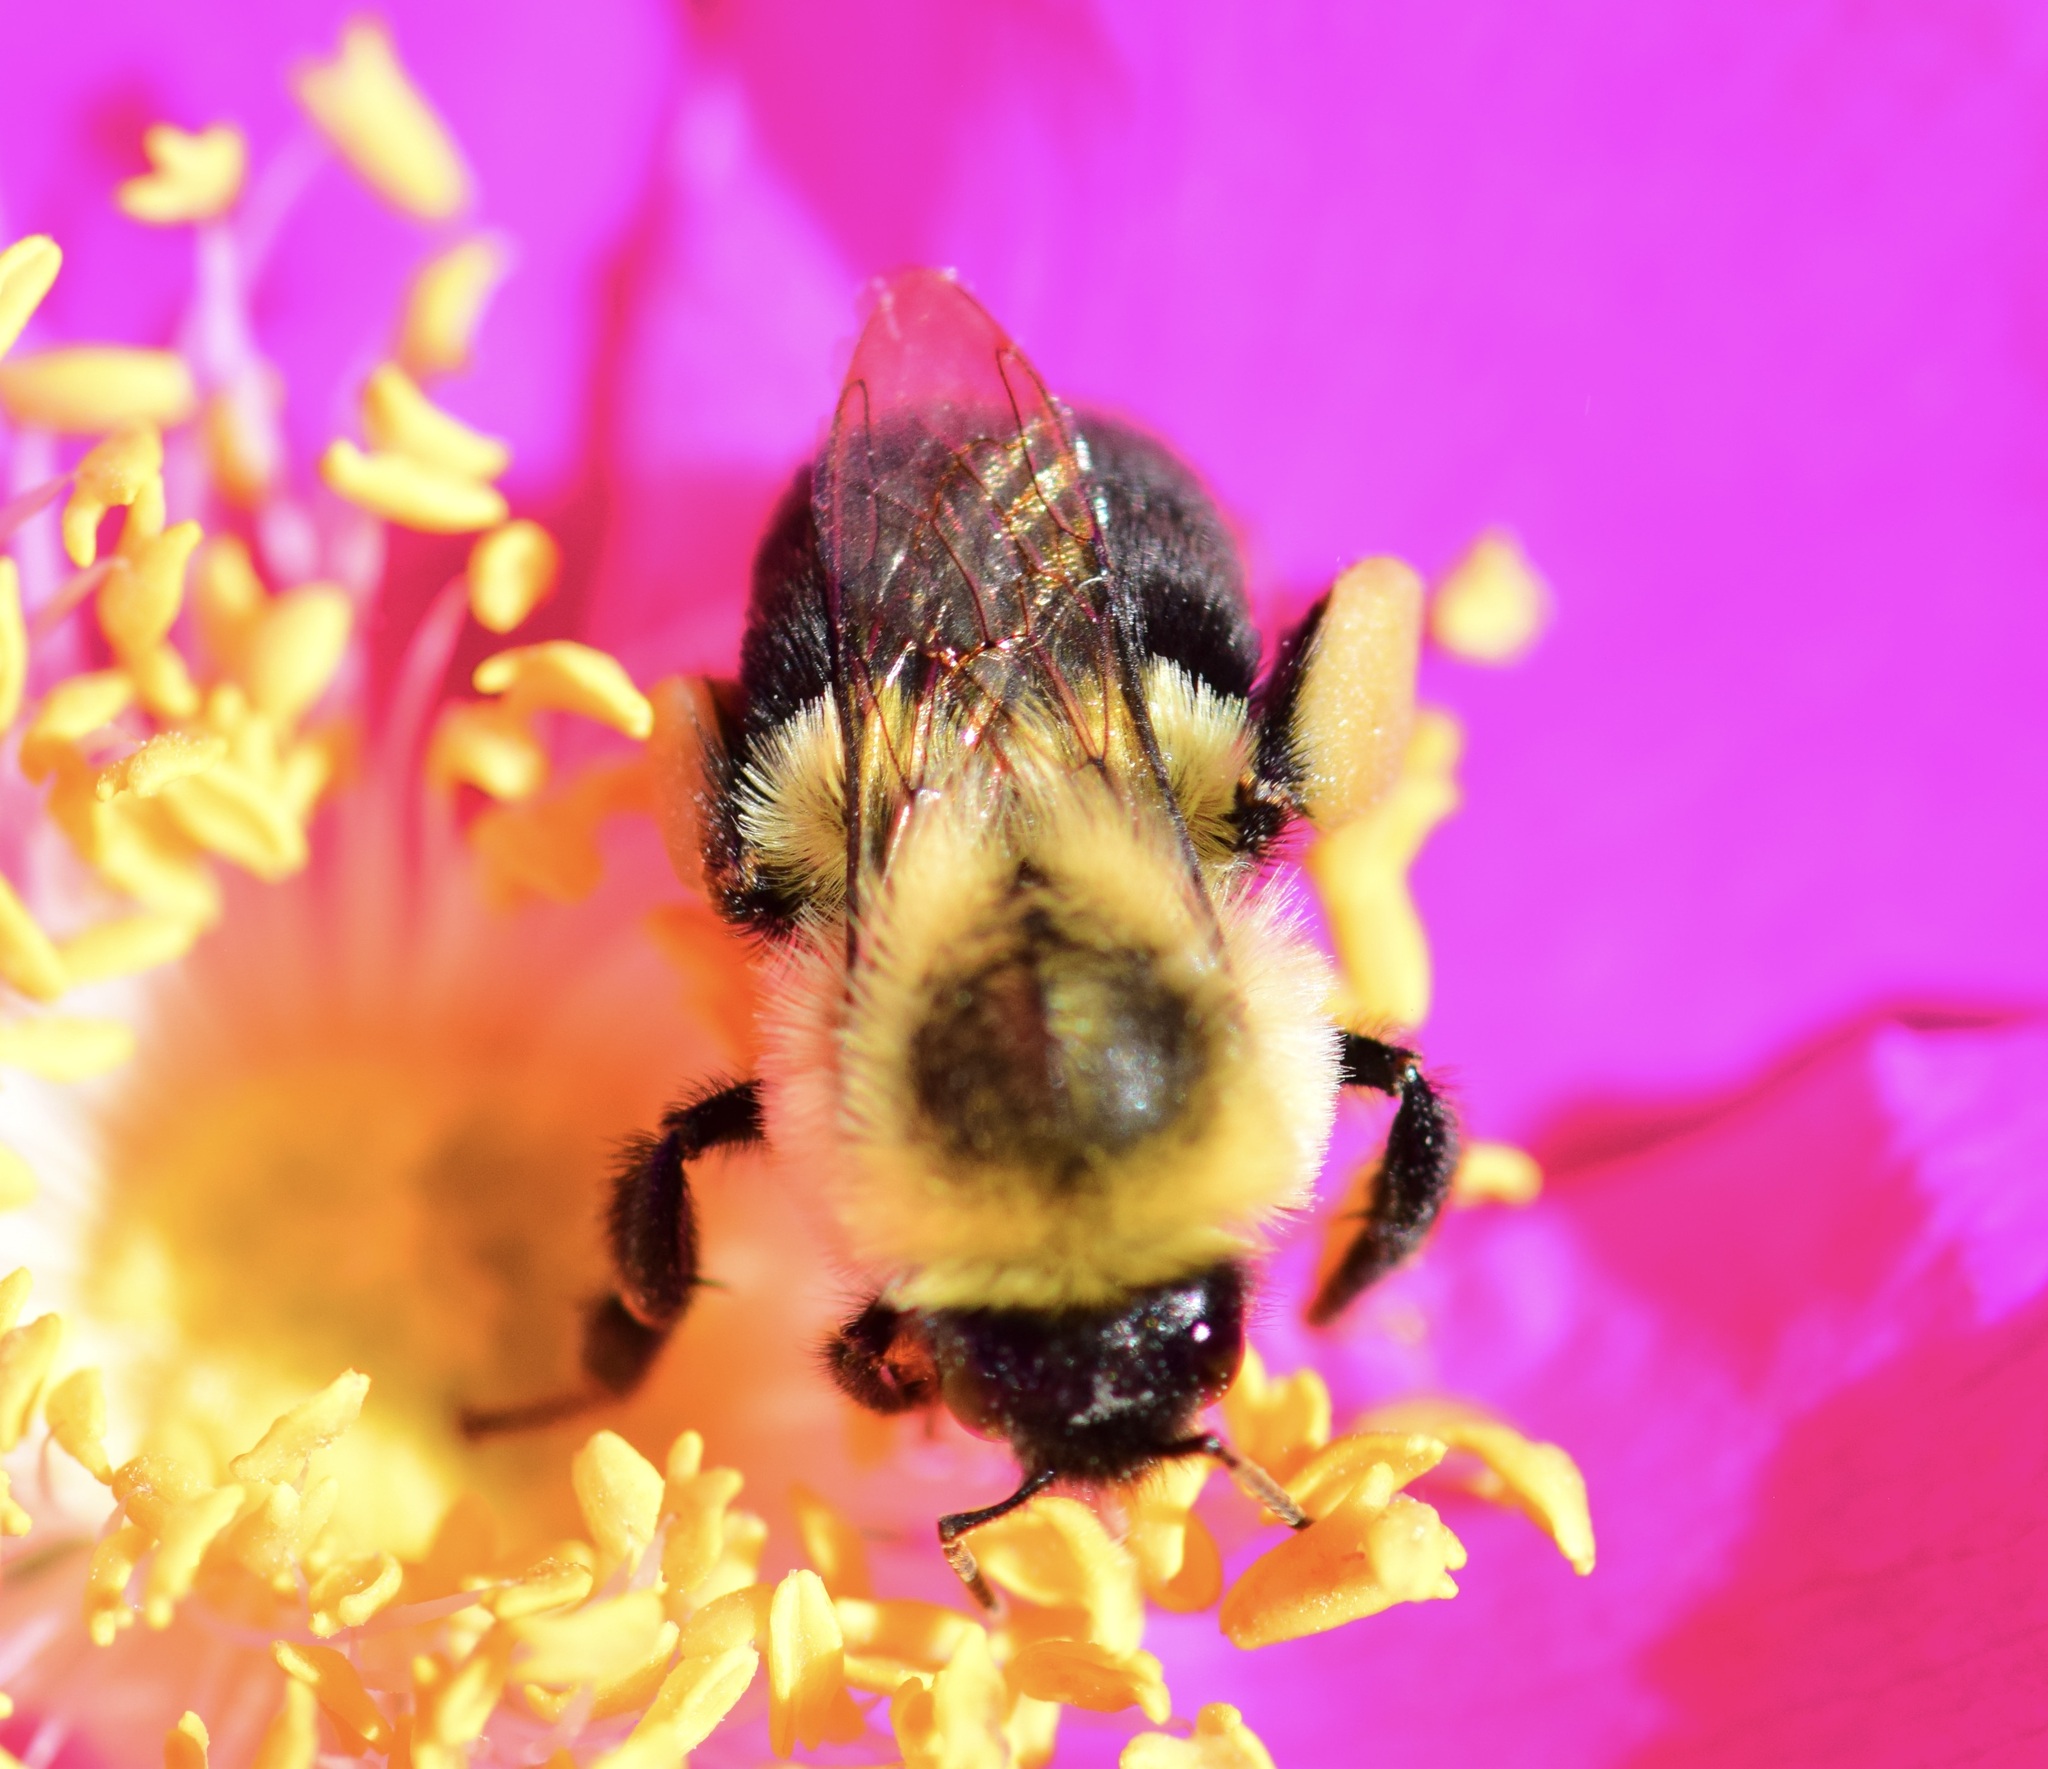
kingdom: Animalia
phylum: Arthropoda
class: Insecta
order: Hymenoptera
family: Apidae
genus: Bombus
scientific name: Bombus impatiens
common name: Common eastern bumble bee
